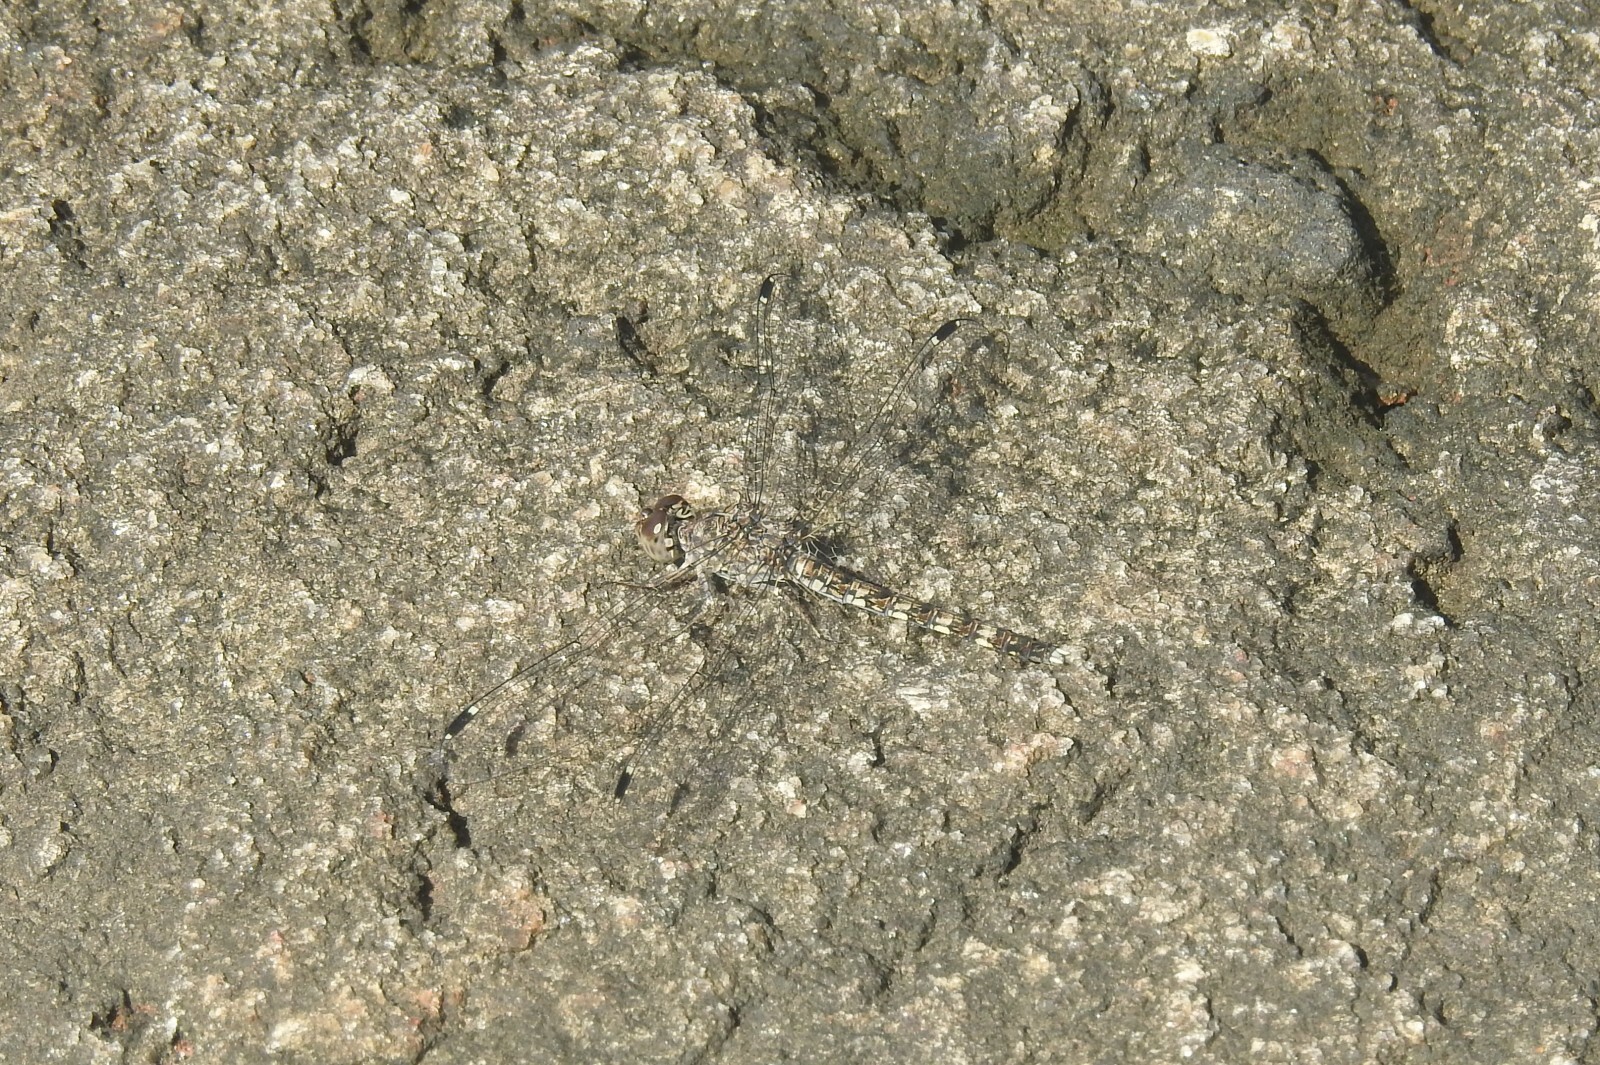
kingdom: Animalia
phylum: Arthropoda
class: Insecta
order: Odonata
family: Libellulidae
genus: Bradinopyga
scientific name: Bradinopyga geminata
